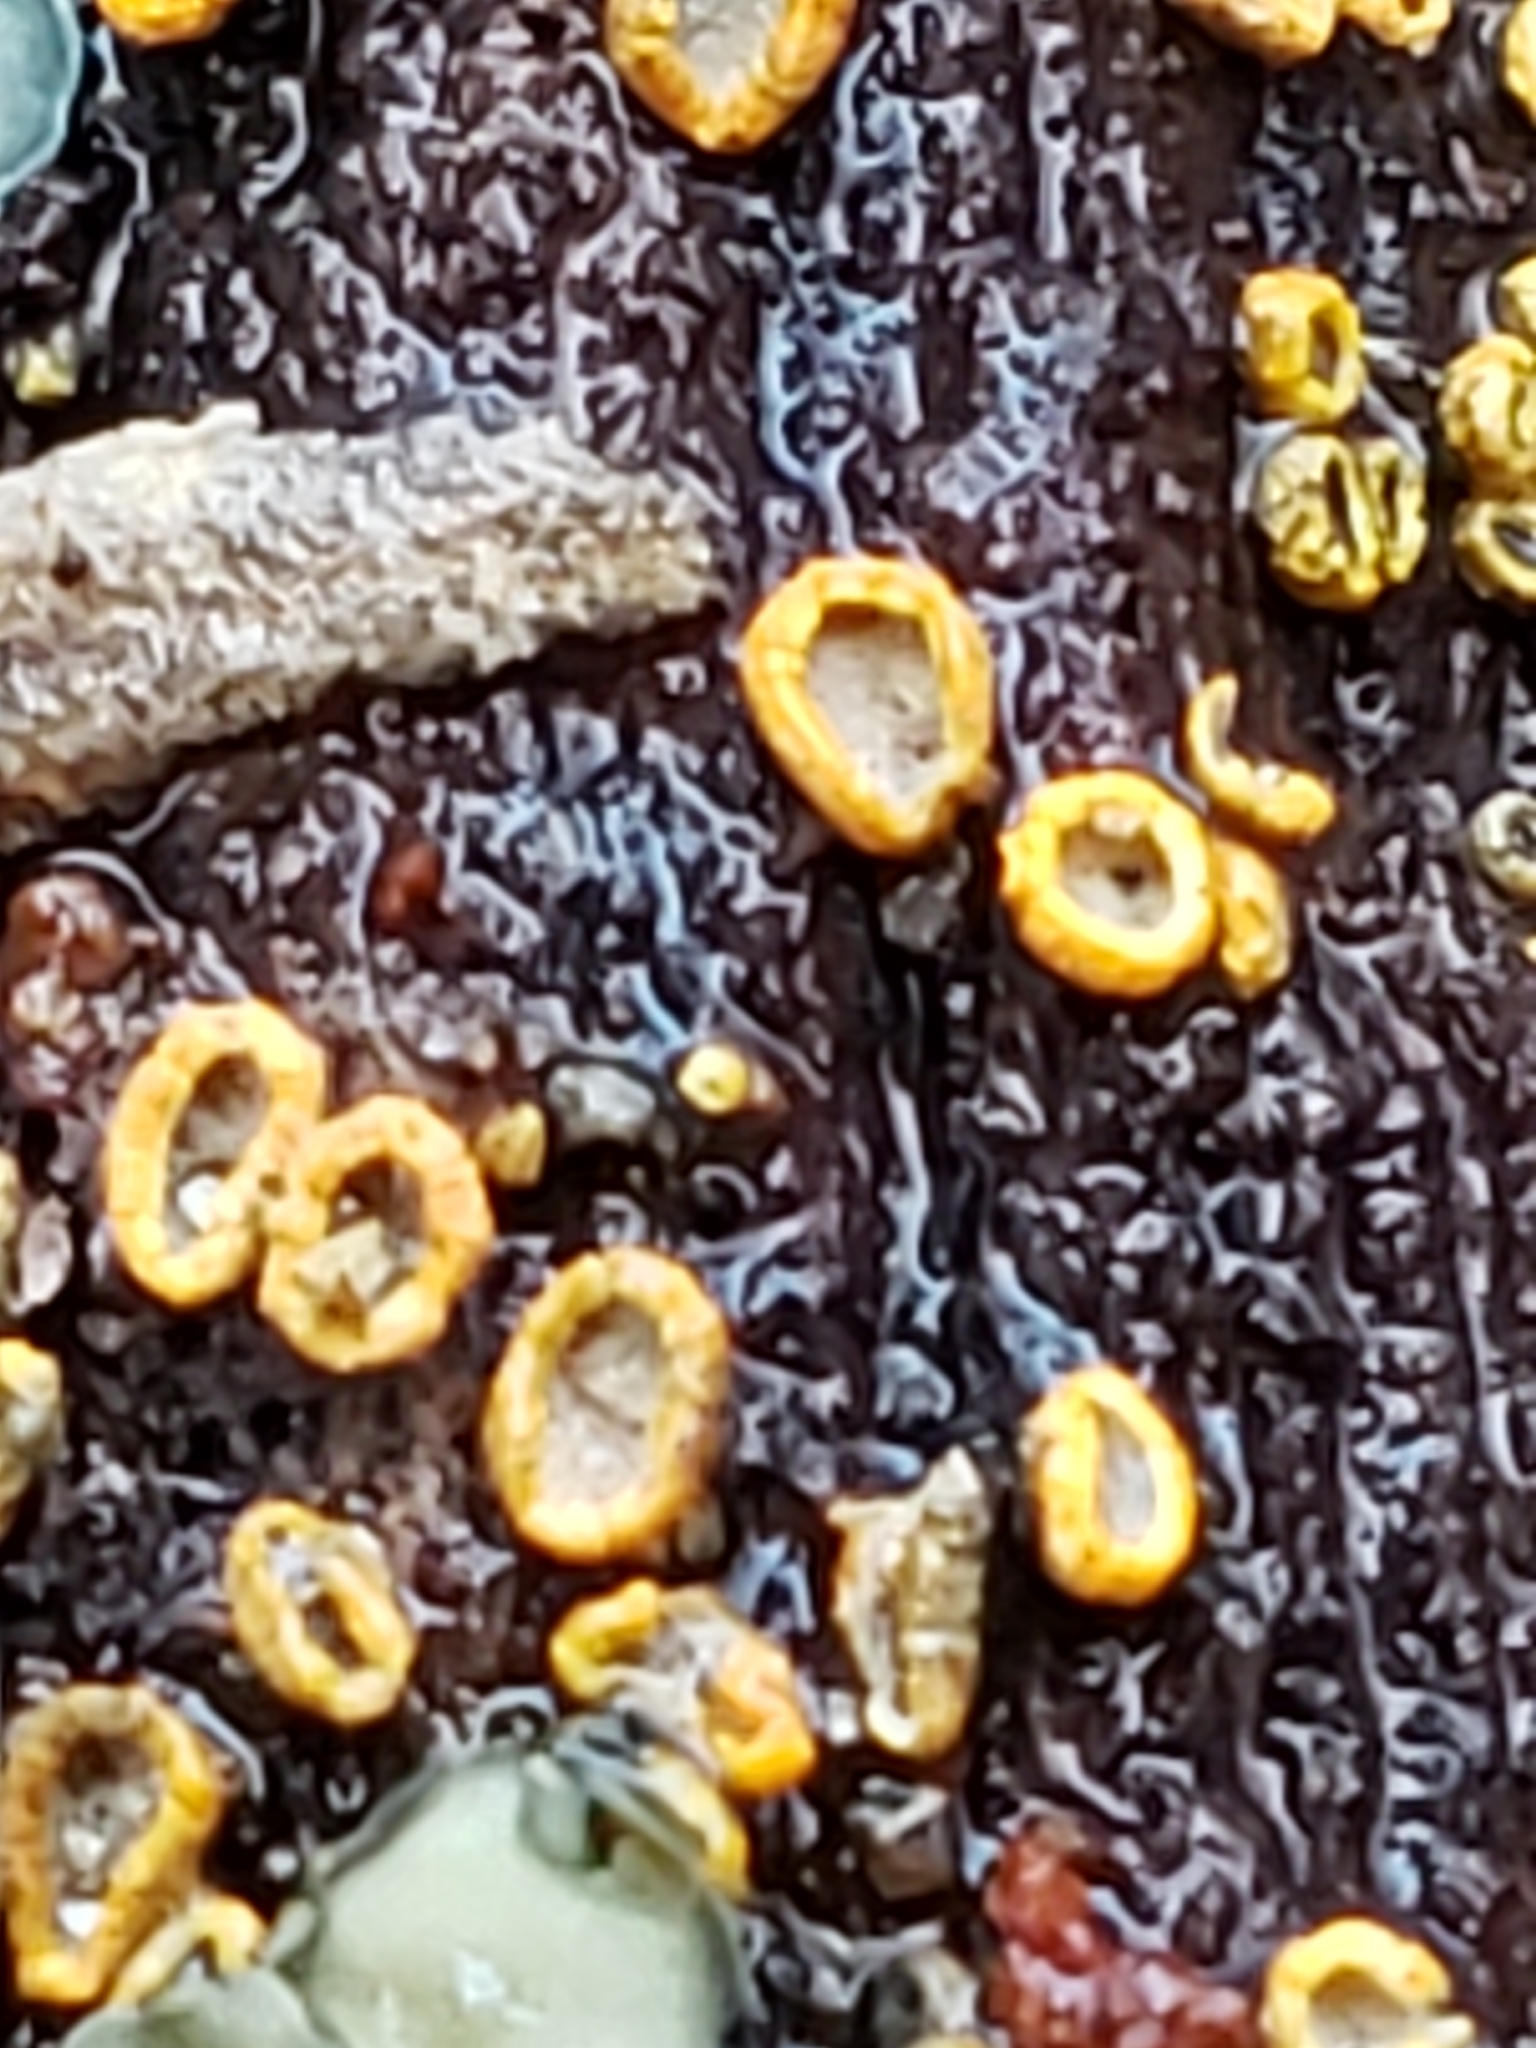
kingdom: Fungi
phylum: Ascomycota
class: Leotiomycetes
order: Helotiales
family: Chlorospleniaceae
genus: Chlorosplenium
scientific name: Chlorosplenium chlora
